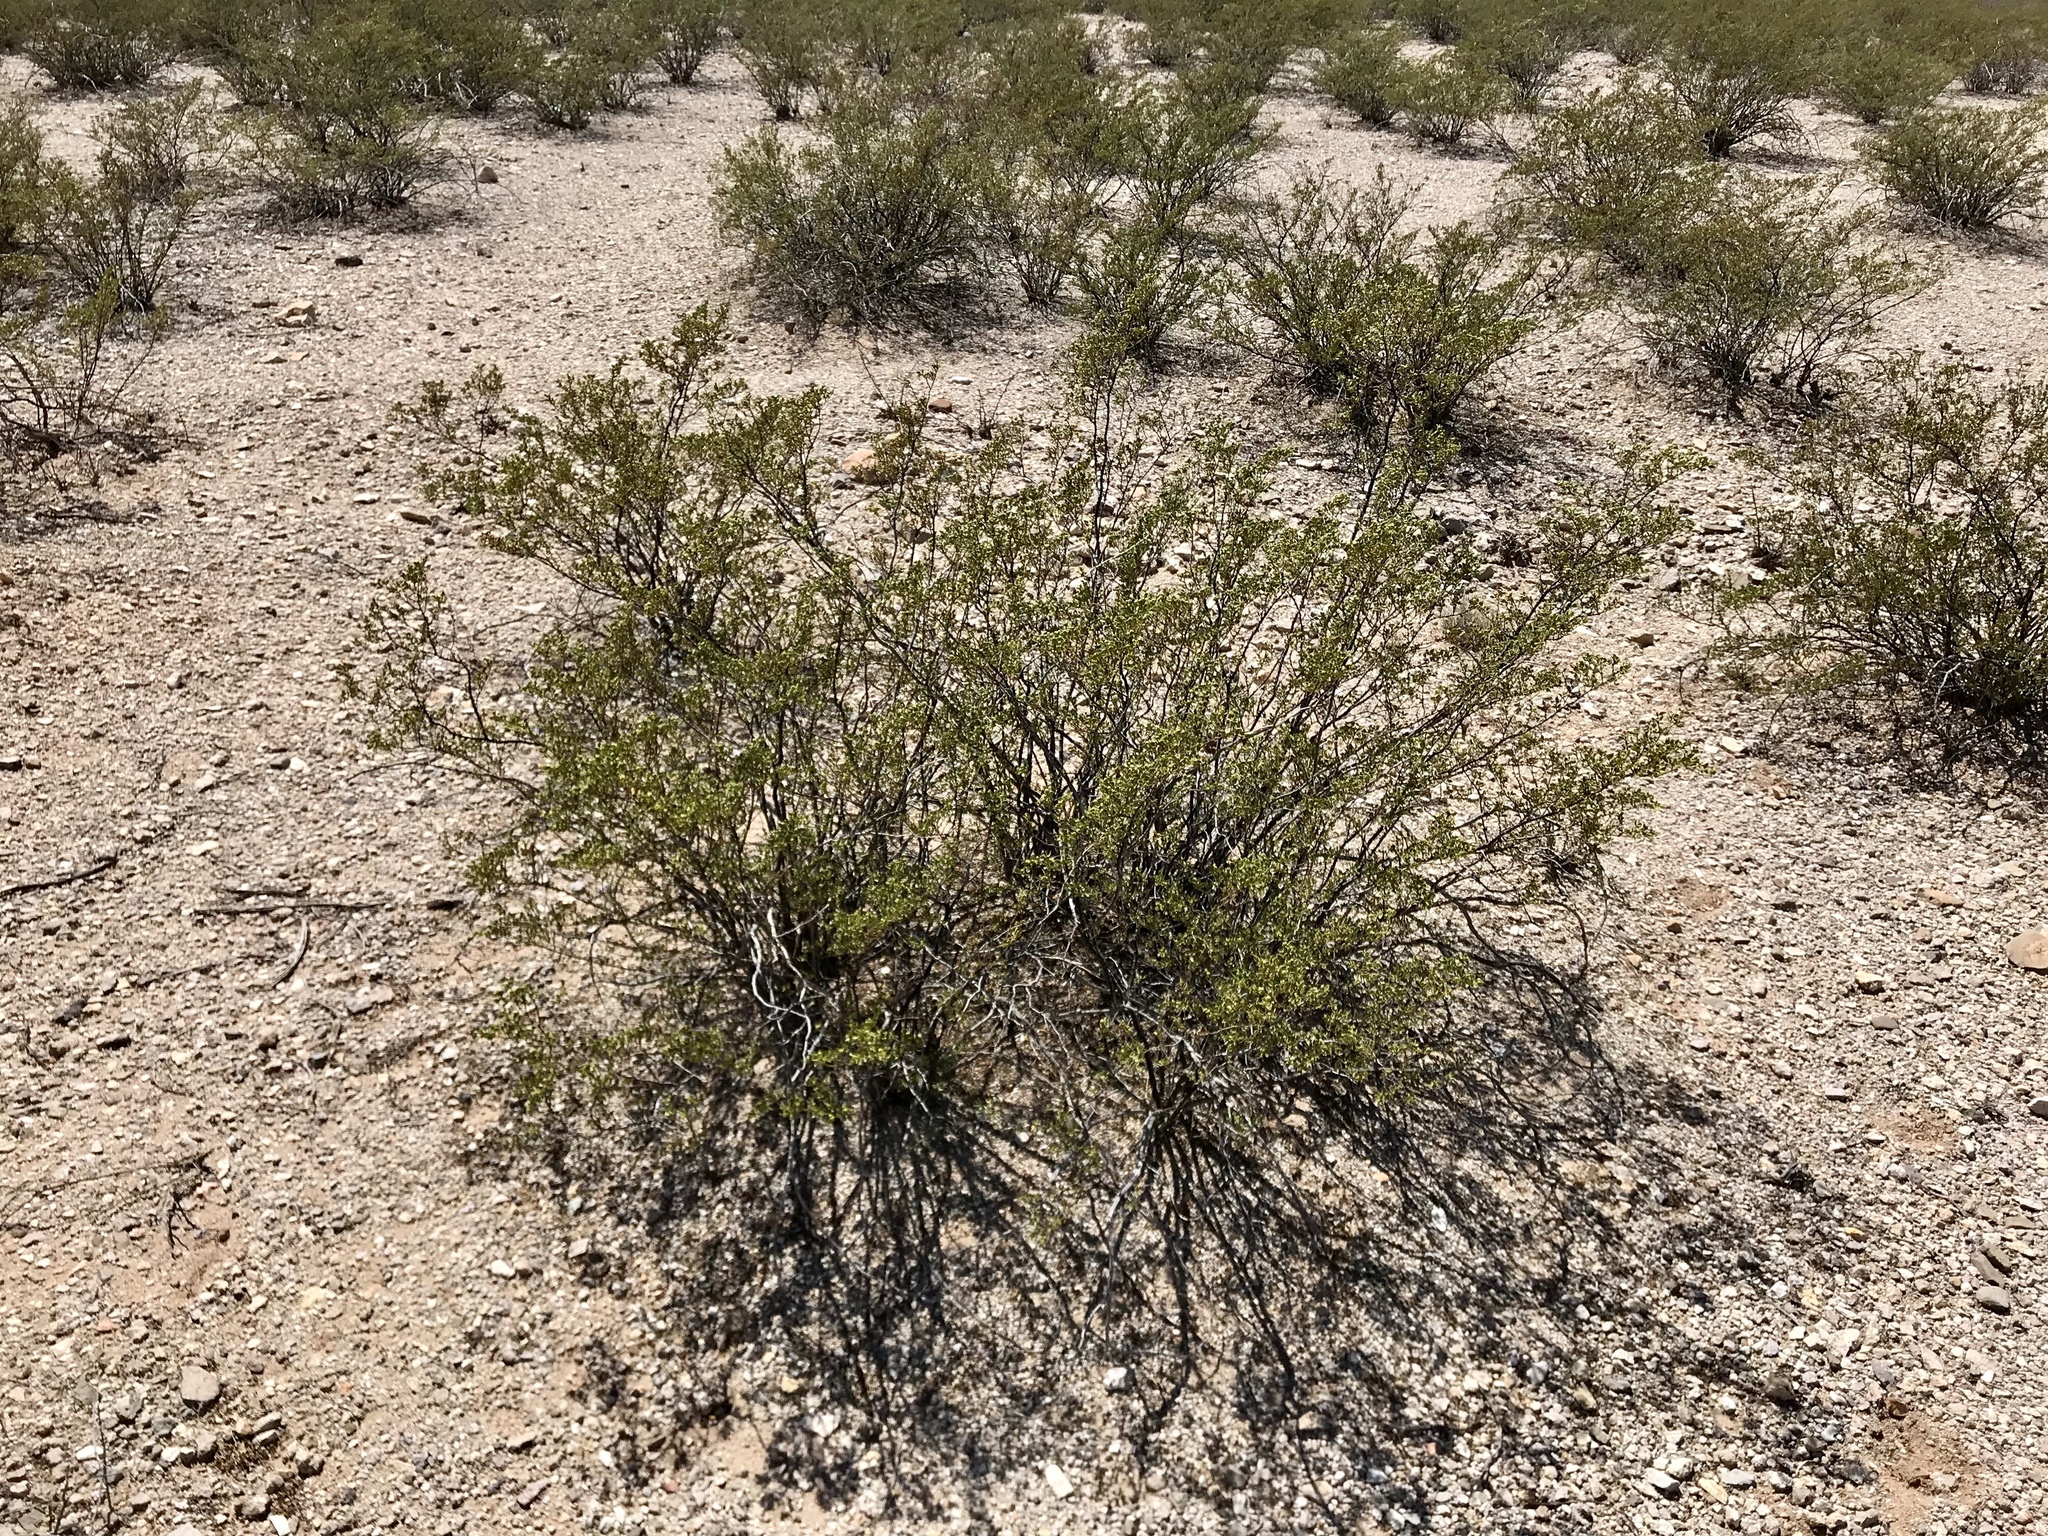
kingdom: Plantae
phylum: Tracheophyta
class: Magnoliopsida
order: Zygophyllales
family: Zygophyllaceae
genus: Larrea
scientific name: Larrea tridentata
